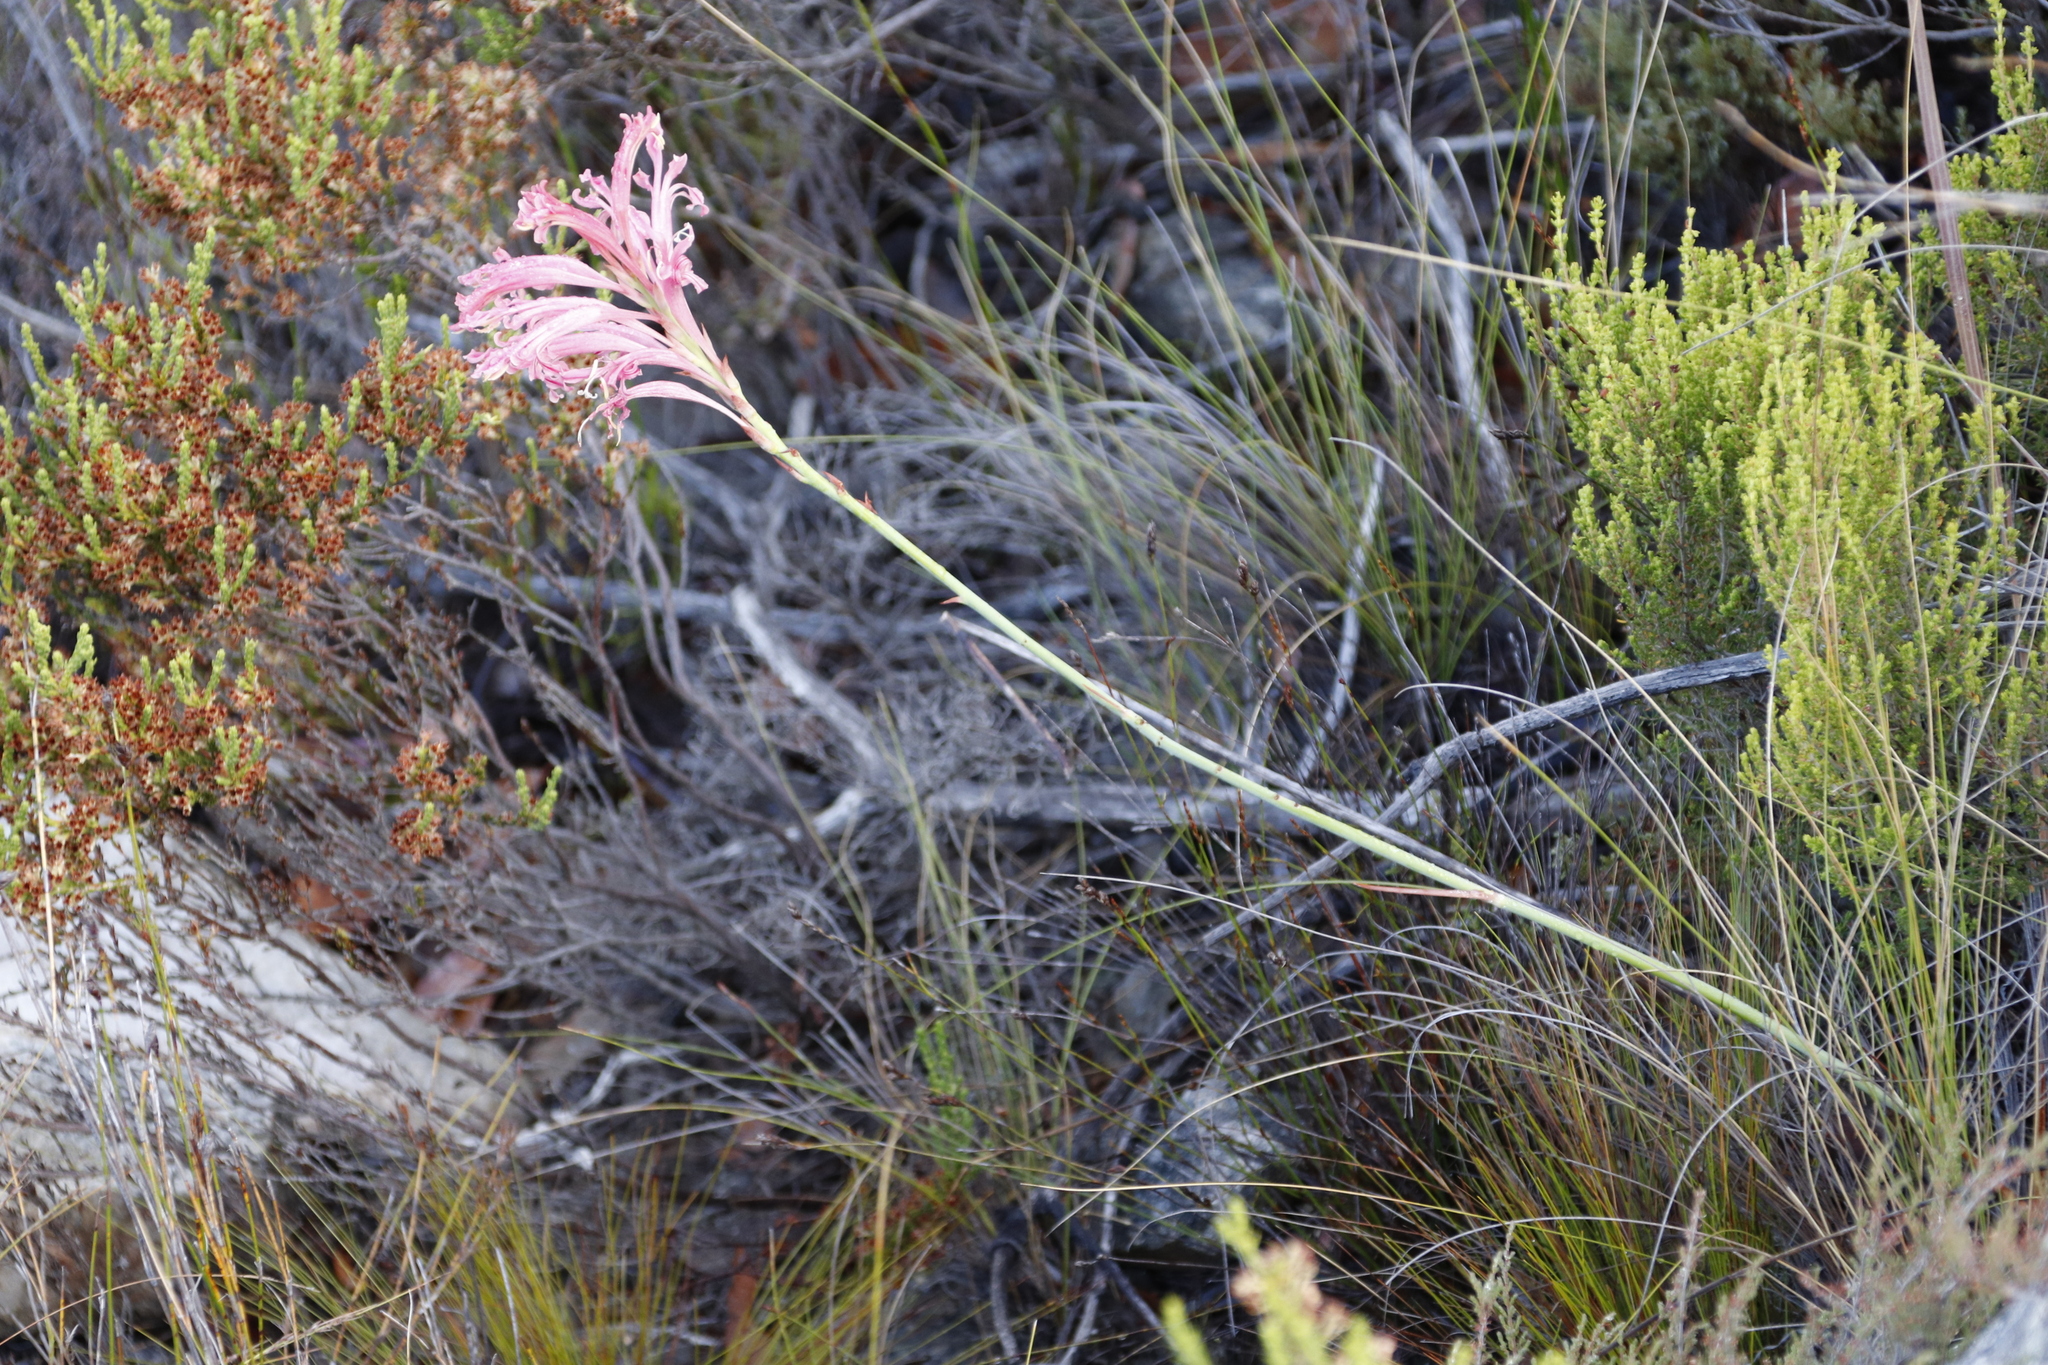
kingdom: Plantae
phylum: Tracheophyta
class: Liliopsida
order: Asparagales
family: Iridaceae
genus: Tritoniopsis
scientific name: Tritoniopsis antholyza
